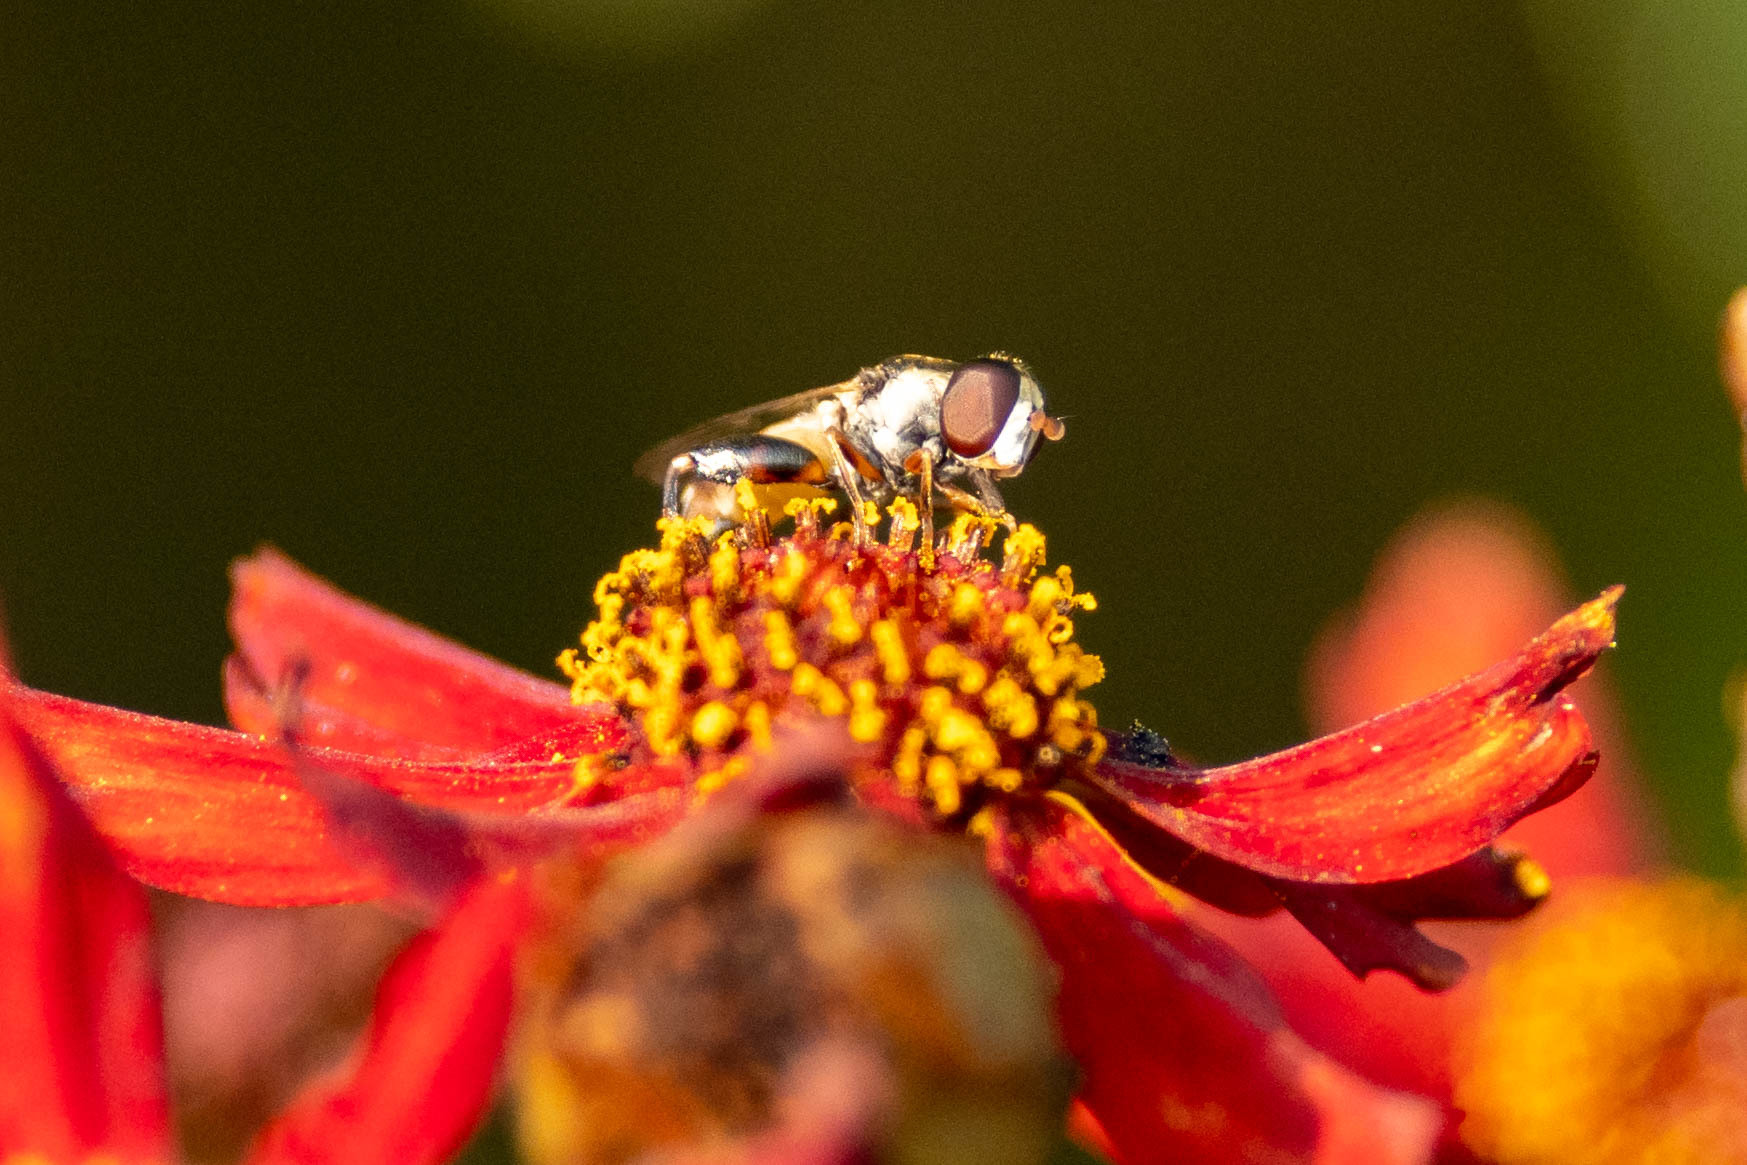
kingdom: Animalia
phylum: Arthropoda
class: Insecta
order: Diptera
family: Syrphidae
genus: Syritta
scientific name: Syritta pipiens
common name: Hover fly
